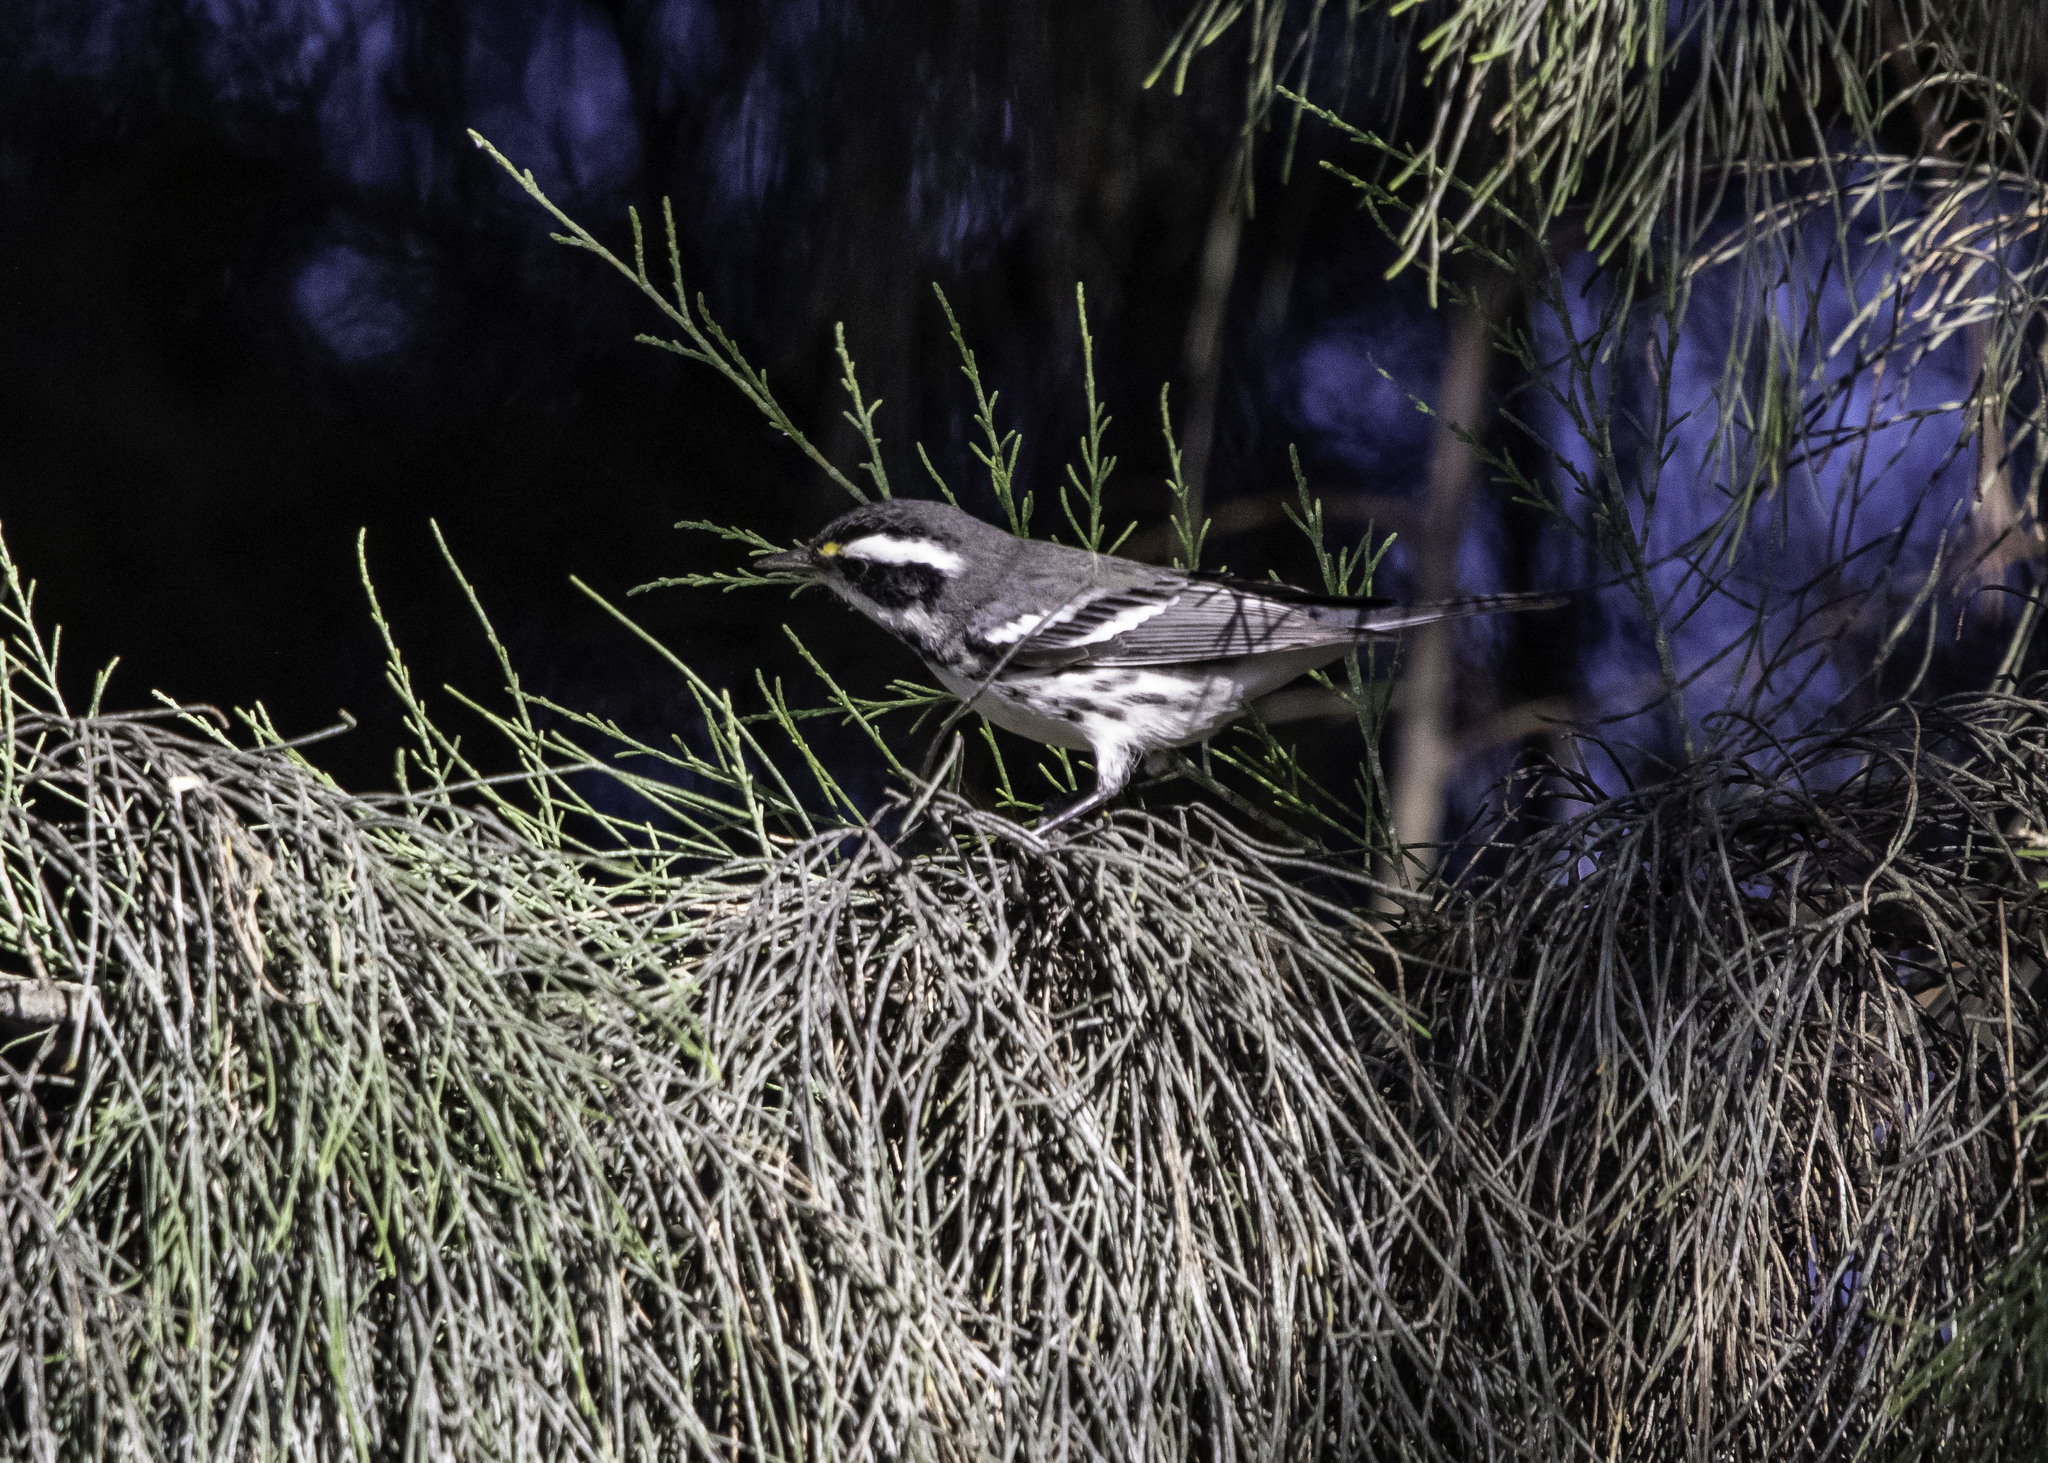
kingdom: Animalia
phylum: Chordata
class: Aves
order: Passeriformes
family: Parulidae
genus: Setophaga
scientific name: Setophaga nigrescens
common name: Black-throated gray warbler
